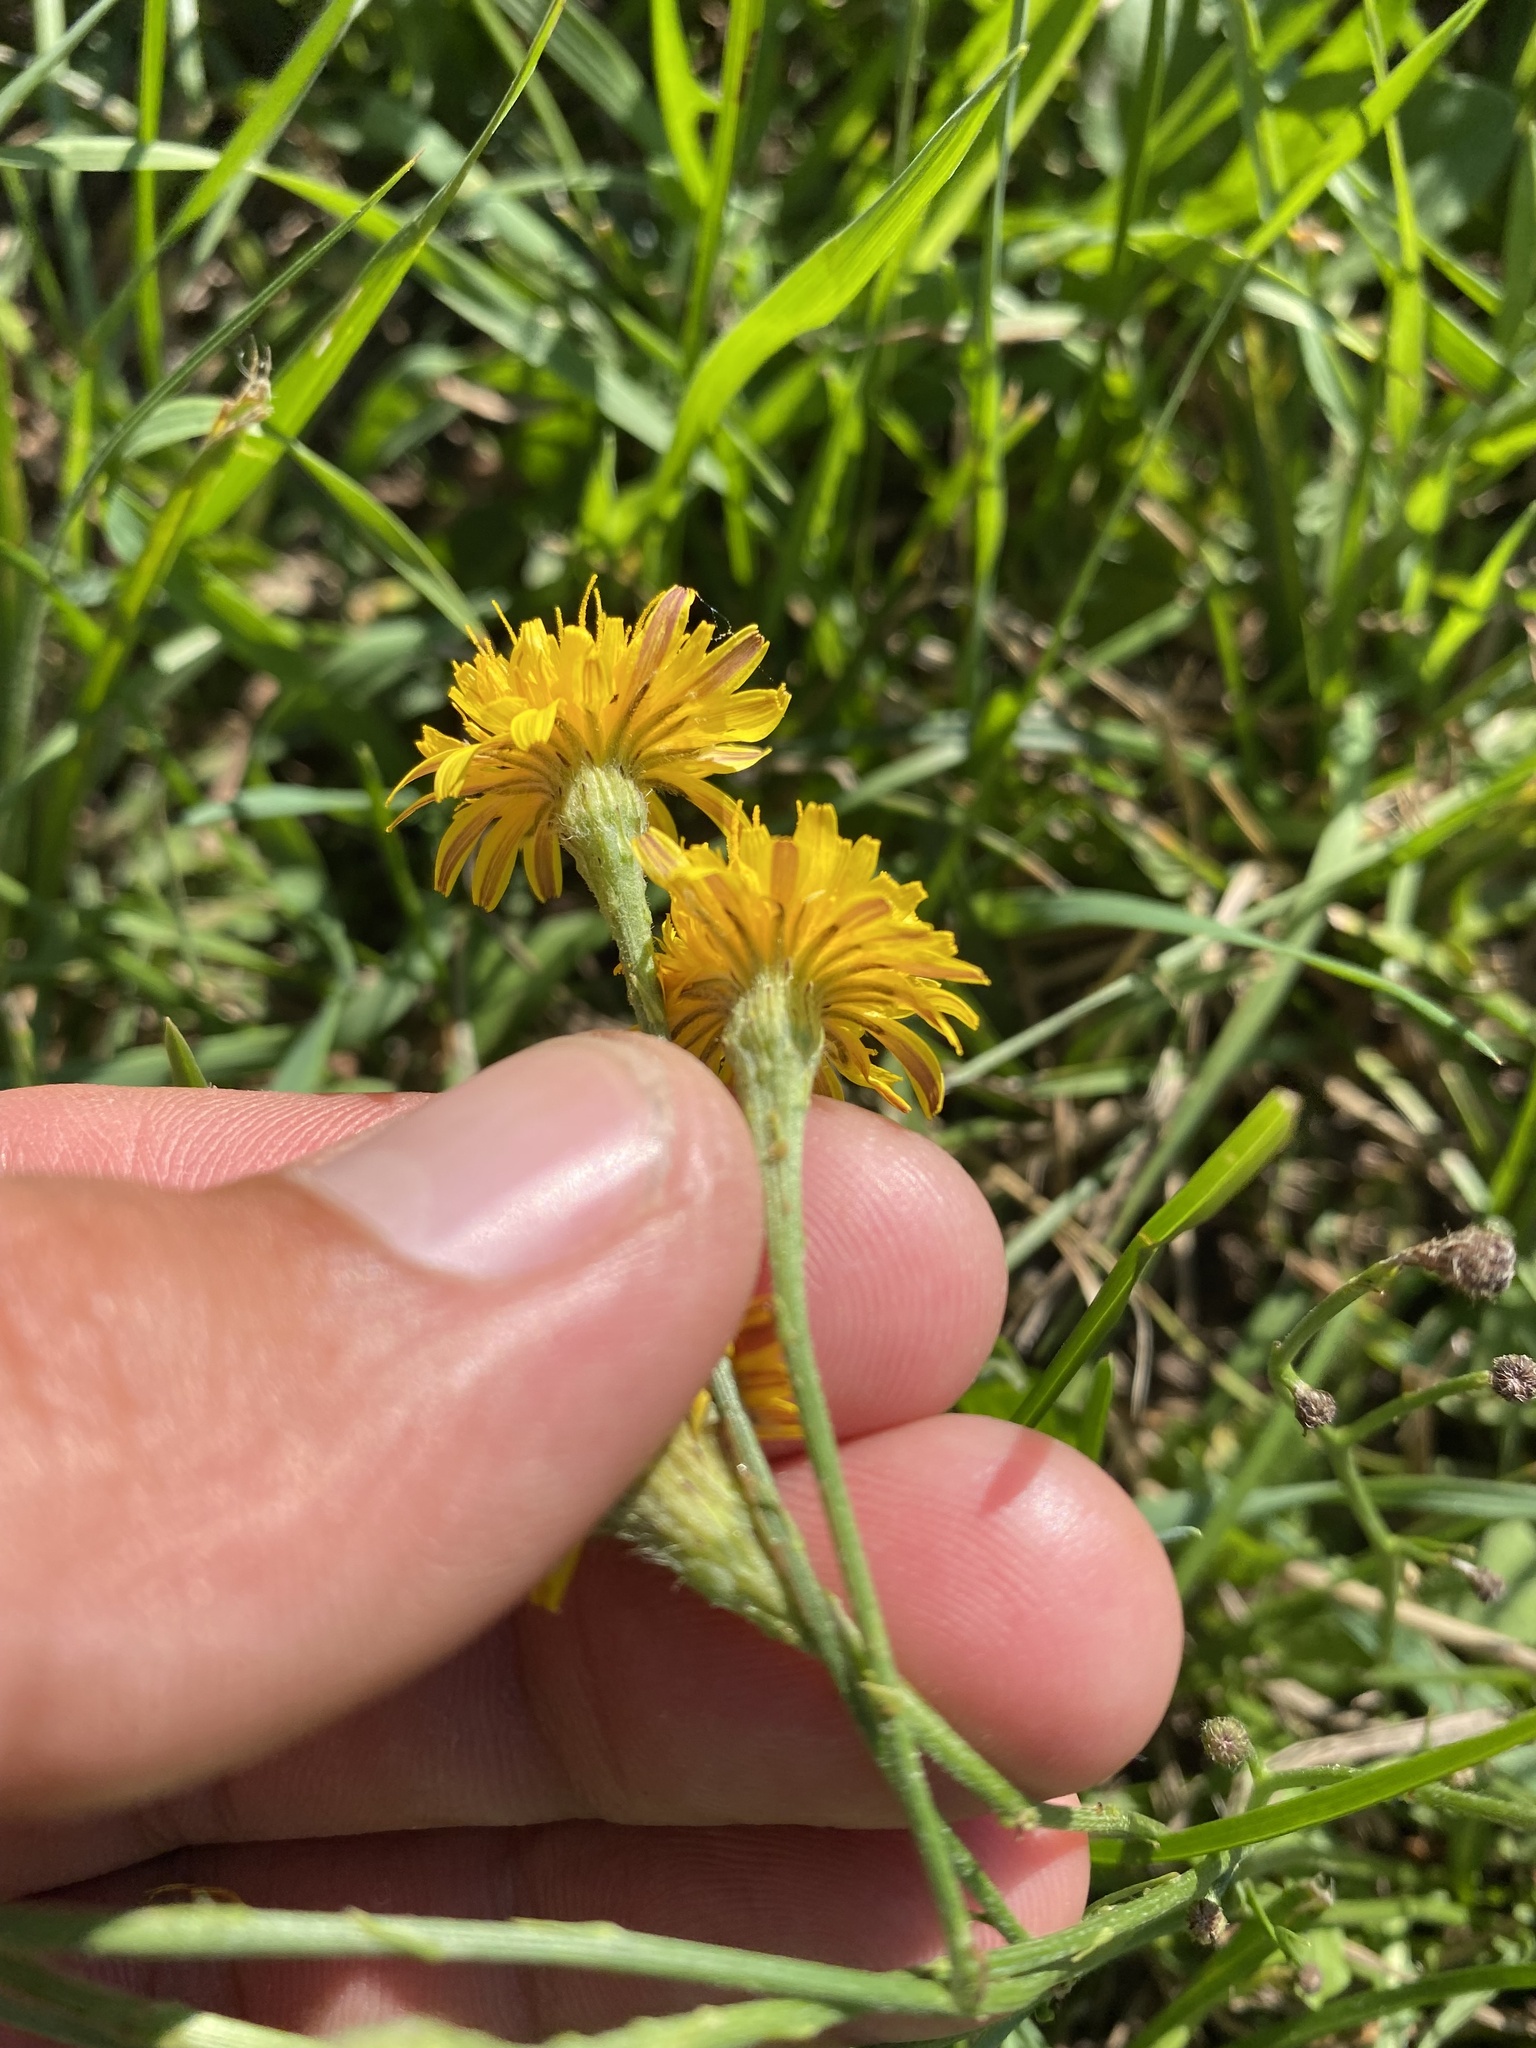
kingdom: Plantae
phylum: Tracheophyta
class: Magnoliopsida
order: Asterales
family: Asteraceae
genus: Scorzoneroides
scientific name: Scorzoneroides autumnalis
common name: Autumn hawkbit
